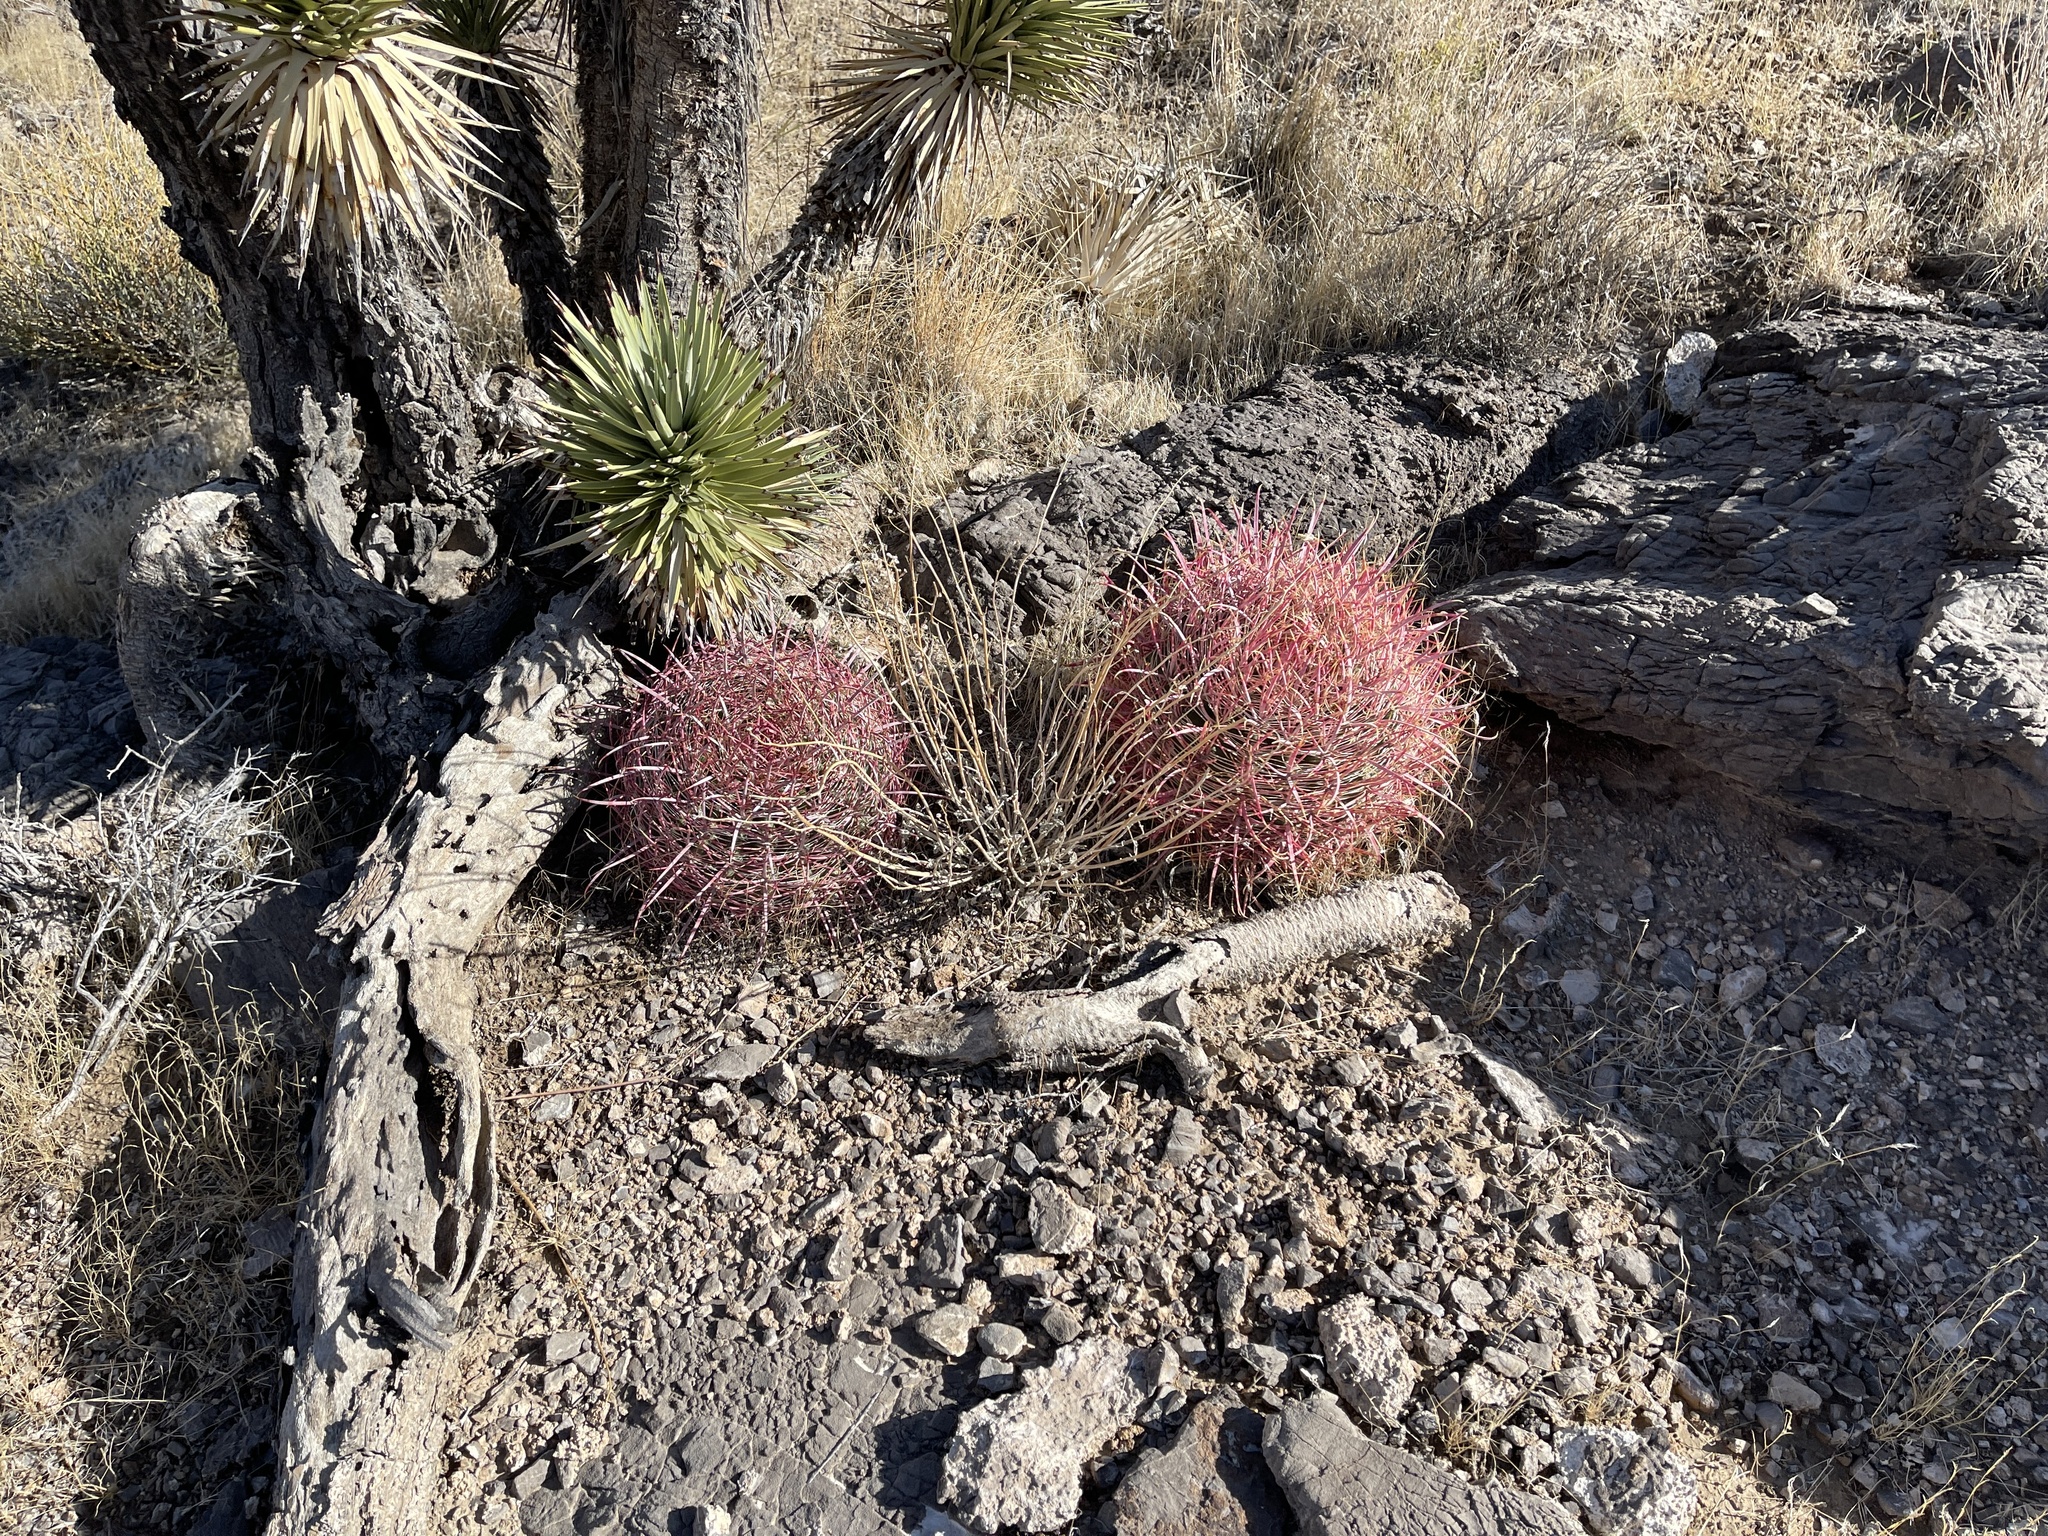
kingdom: Plantae
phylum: Tracheophyta
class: Magnoliopsida
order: Caryophyllales
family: Cactaceae
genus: Ferocactus
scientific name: Ferocactus cylindraceus
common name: California barrel cactus
